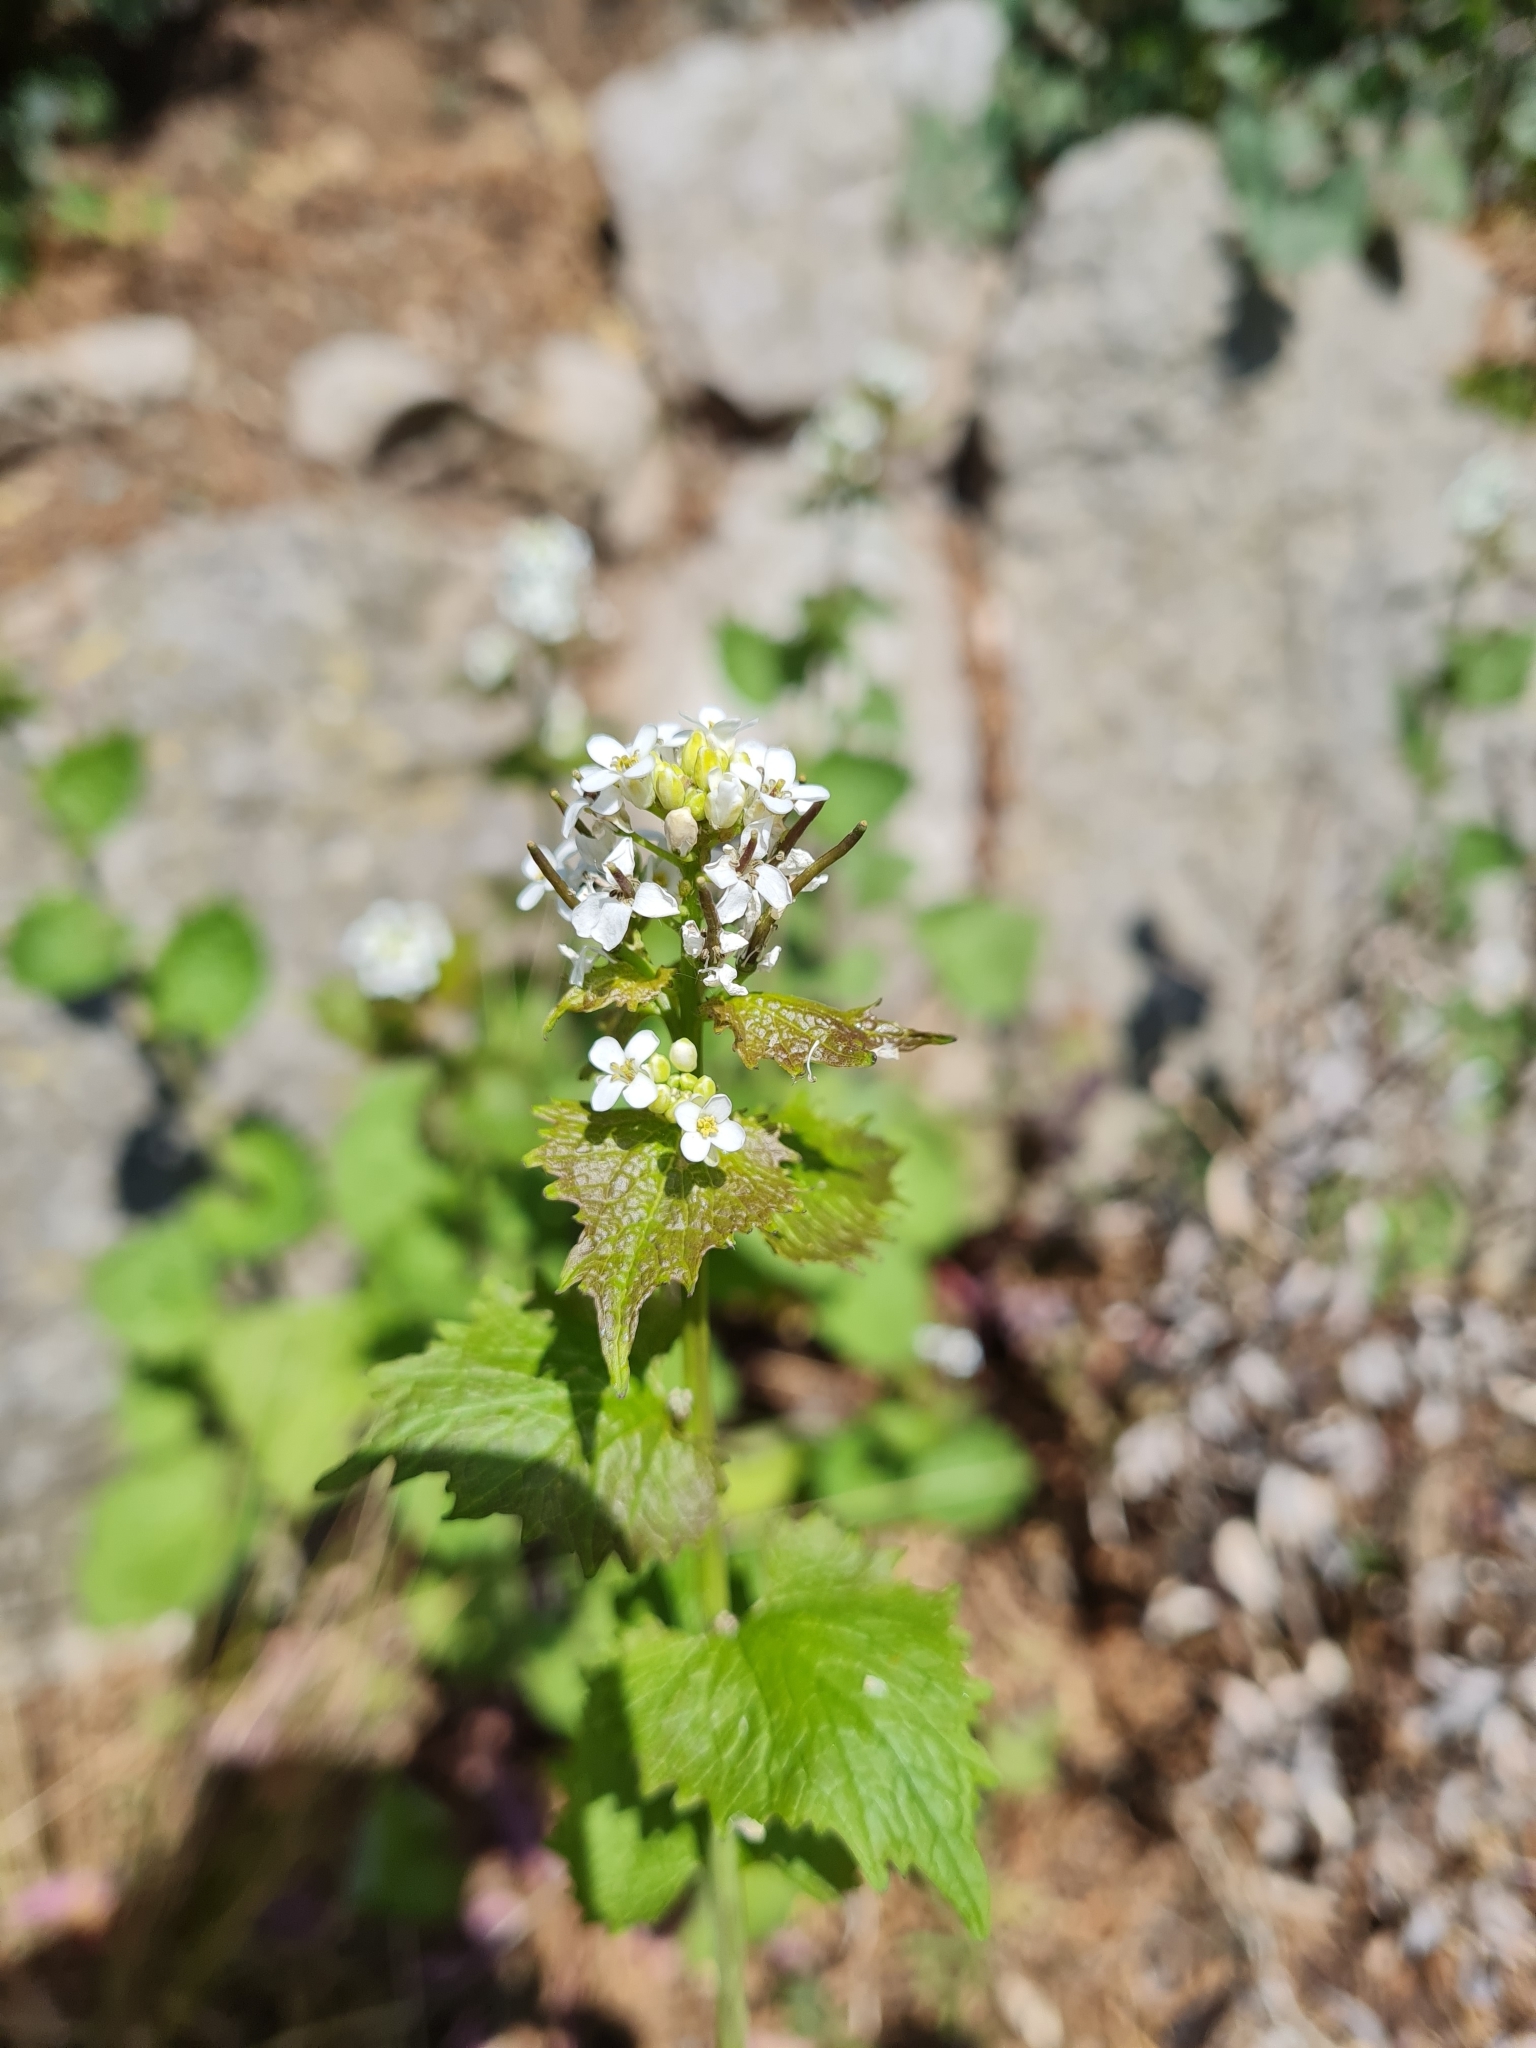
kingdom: Plantae
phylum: Tracheophyta
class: Magnoliopsida
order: Brassicales
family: Brassicaceae
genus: Alliaria
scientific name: Alliaria petiolata
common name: Garlic mustard
